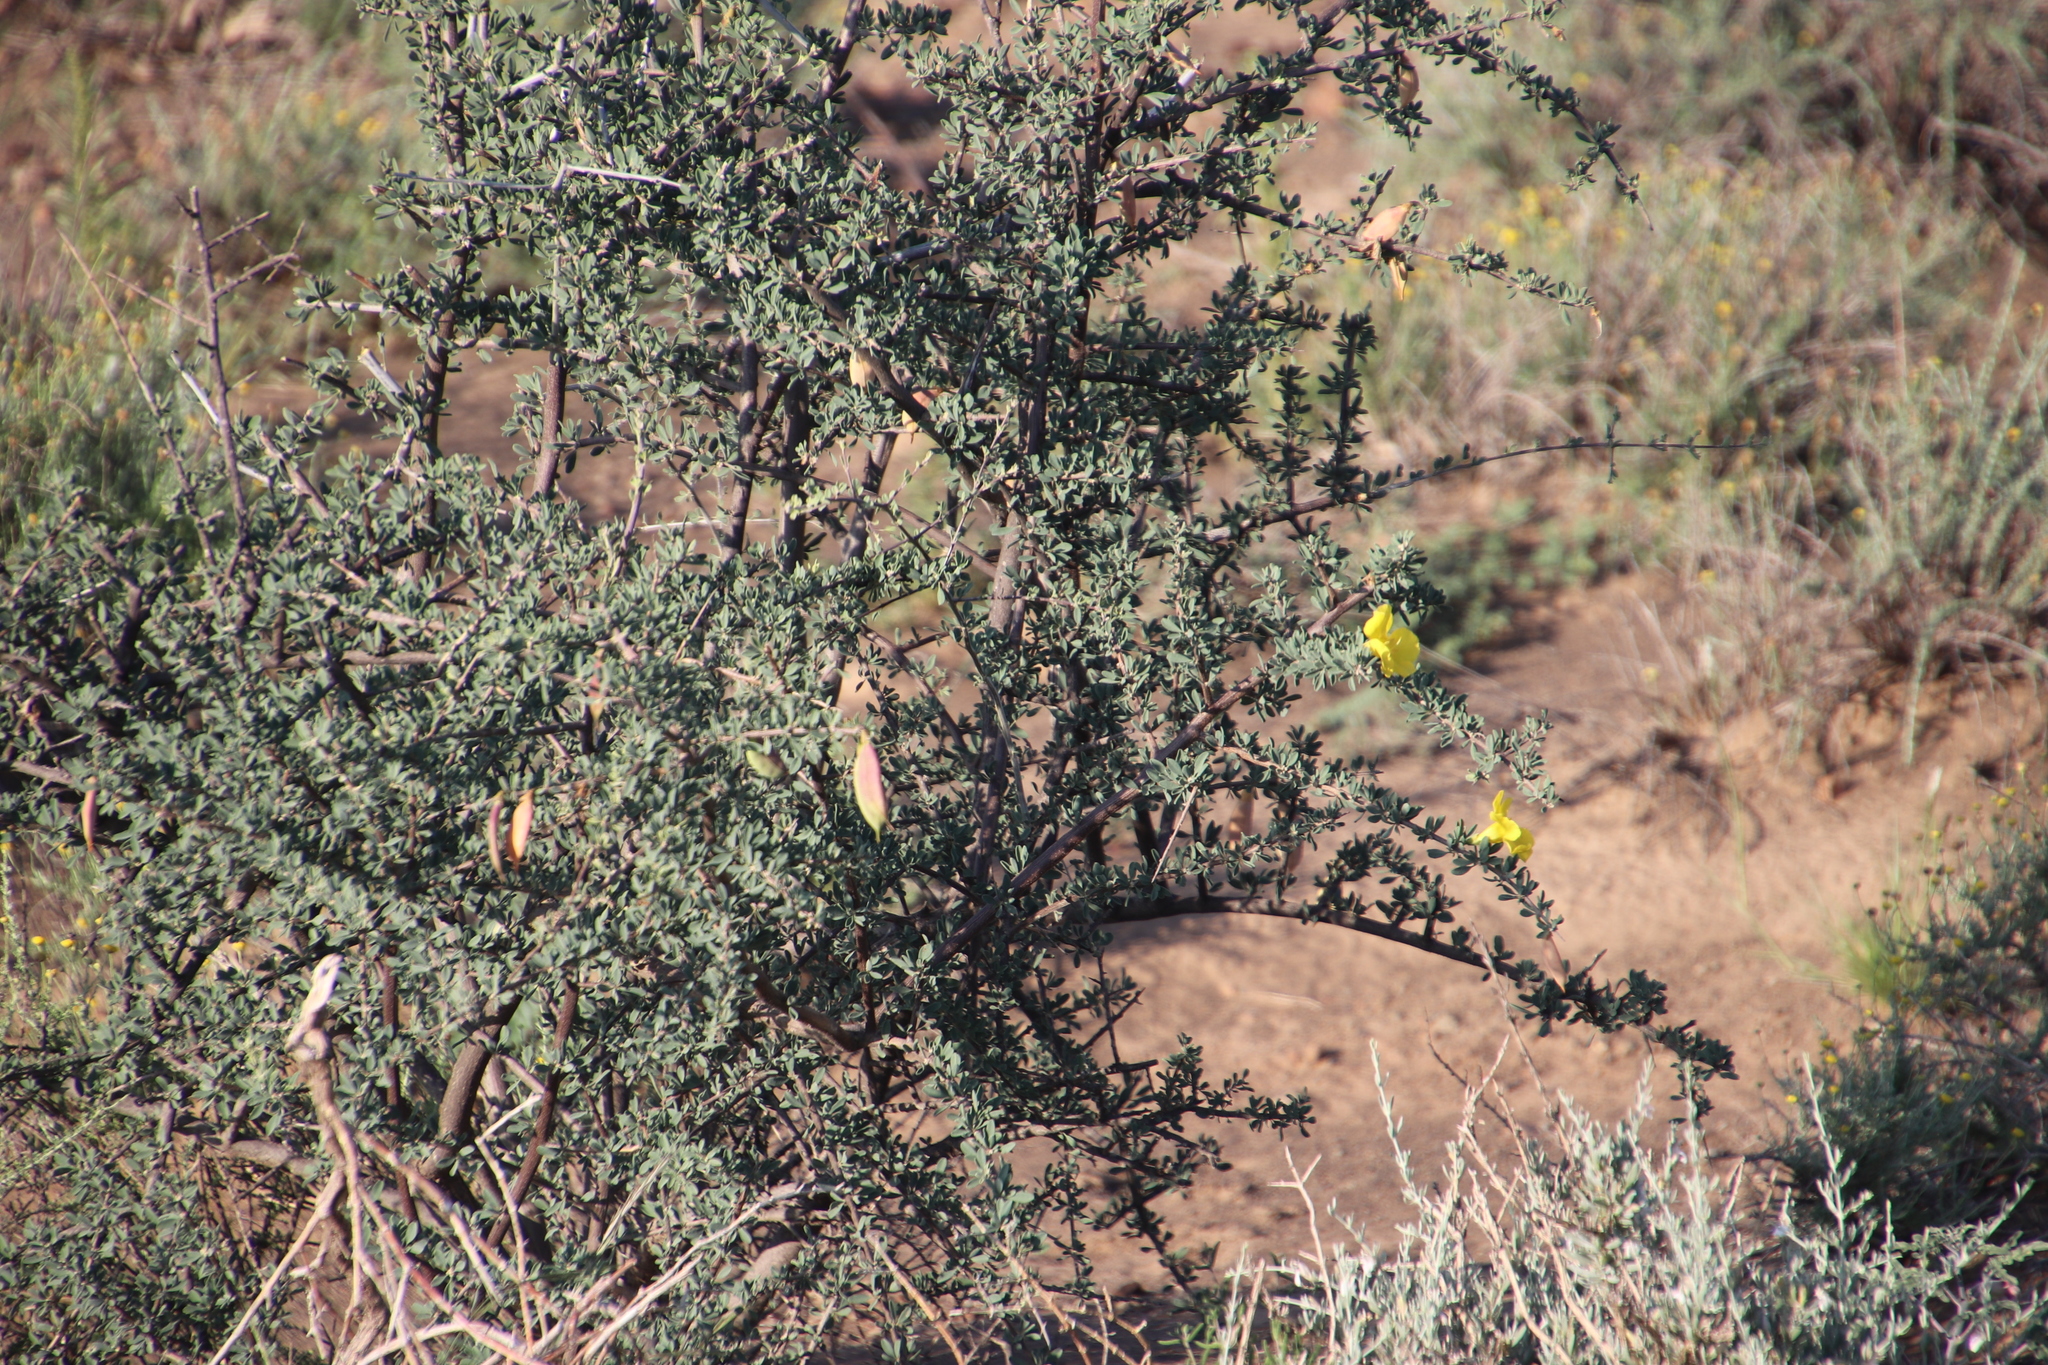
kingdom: Plantae
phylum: Tracheophyta
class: Magnoliopsida
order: Lamiales
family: Bignoniaceae
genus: Rhigozum
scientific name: Rhigozum obovatum
